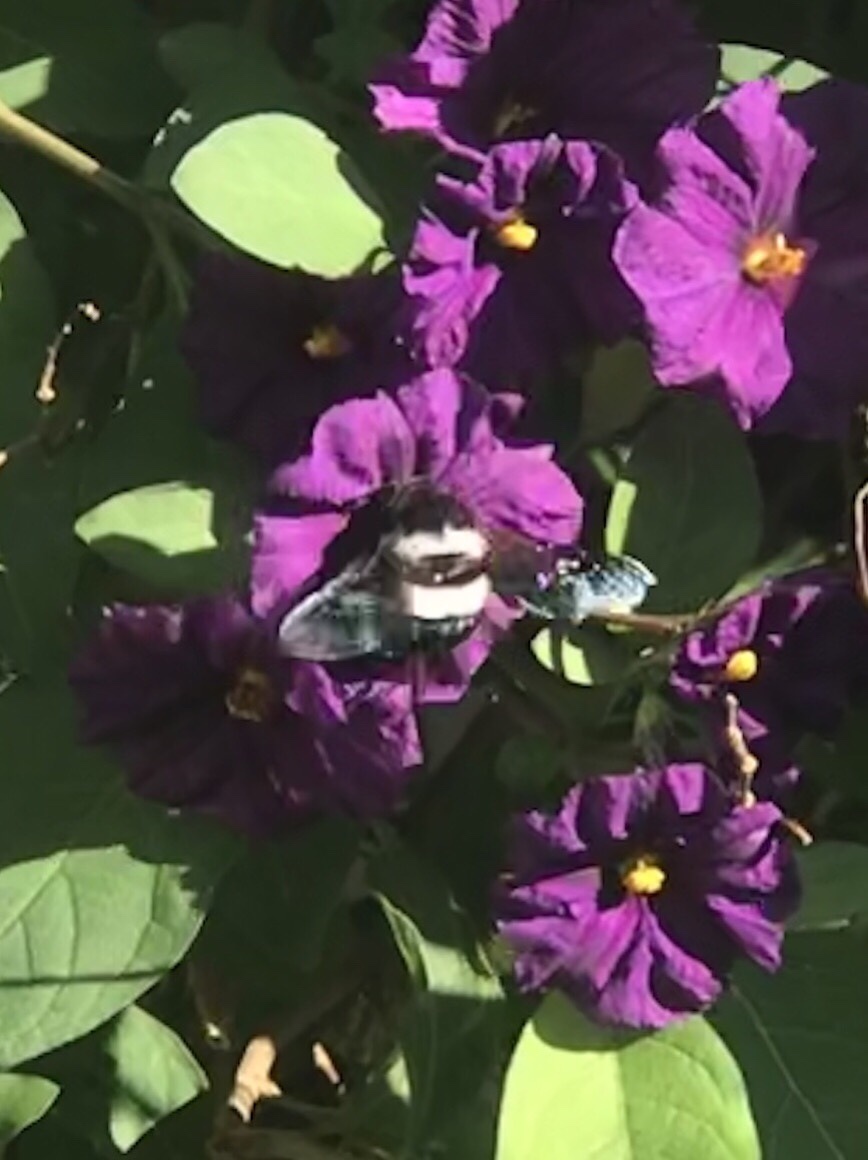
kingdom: Animalia
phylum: Arthropoda
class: Insecta
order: Hymenoptera
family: Apidae
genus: Xylocopa
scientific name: Xylocopa caffra
